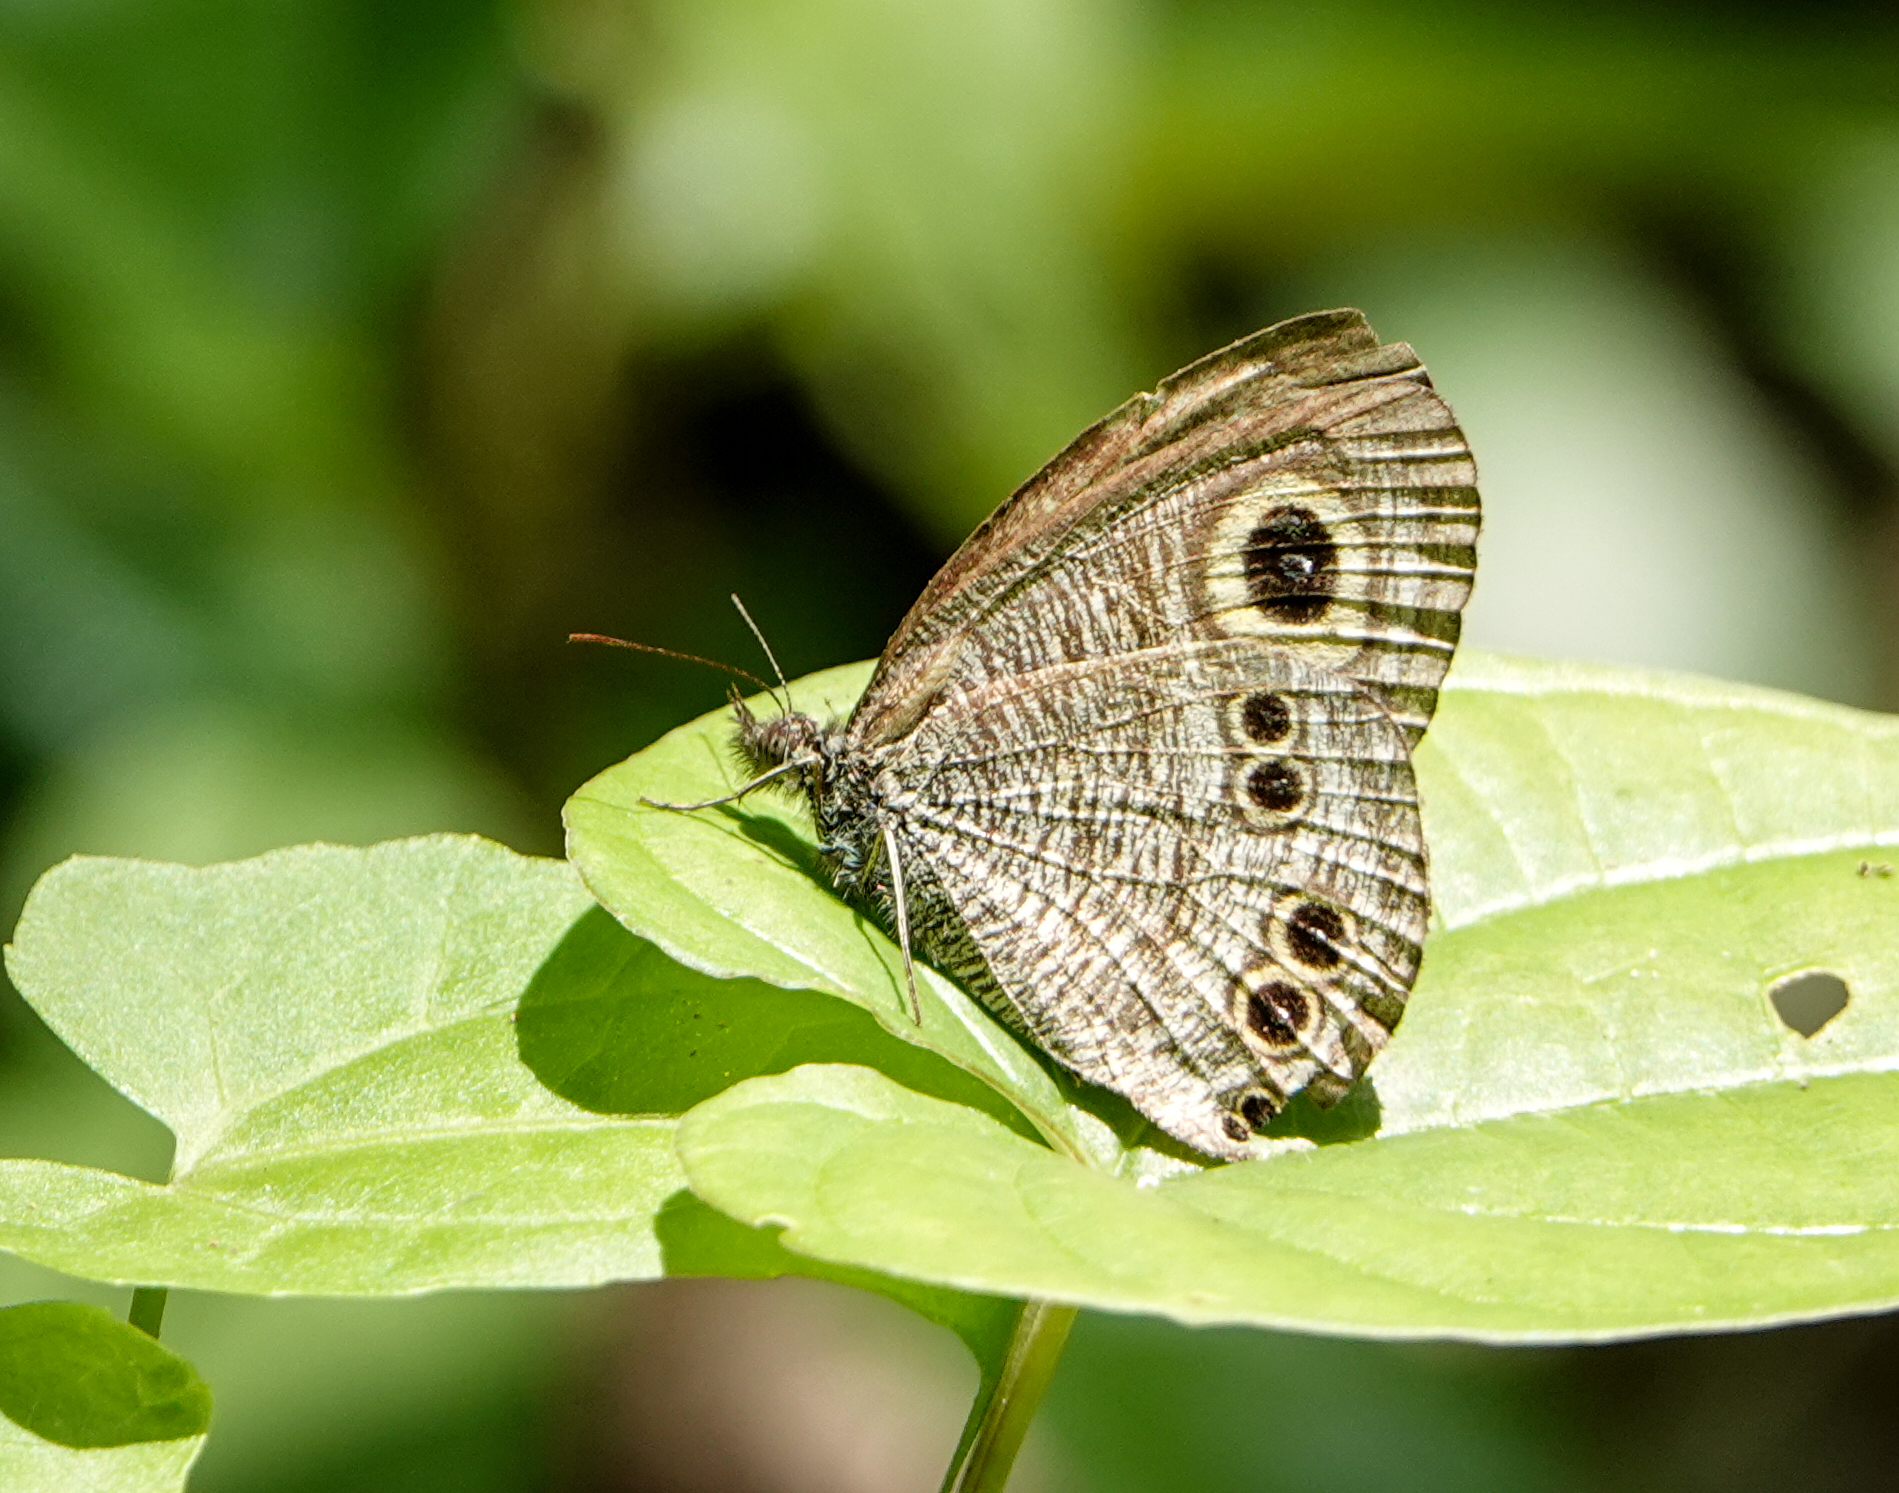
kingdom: Animalia
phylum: Arthropoda
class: Insecta
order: Lepidoptera
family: Nymphalidae
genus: Ypthima
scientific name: Ypthima baldus
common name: Common five-ring
